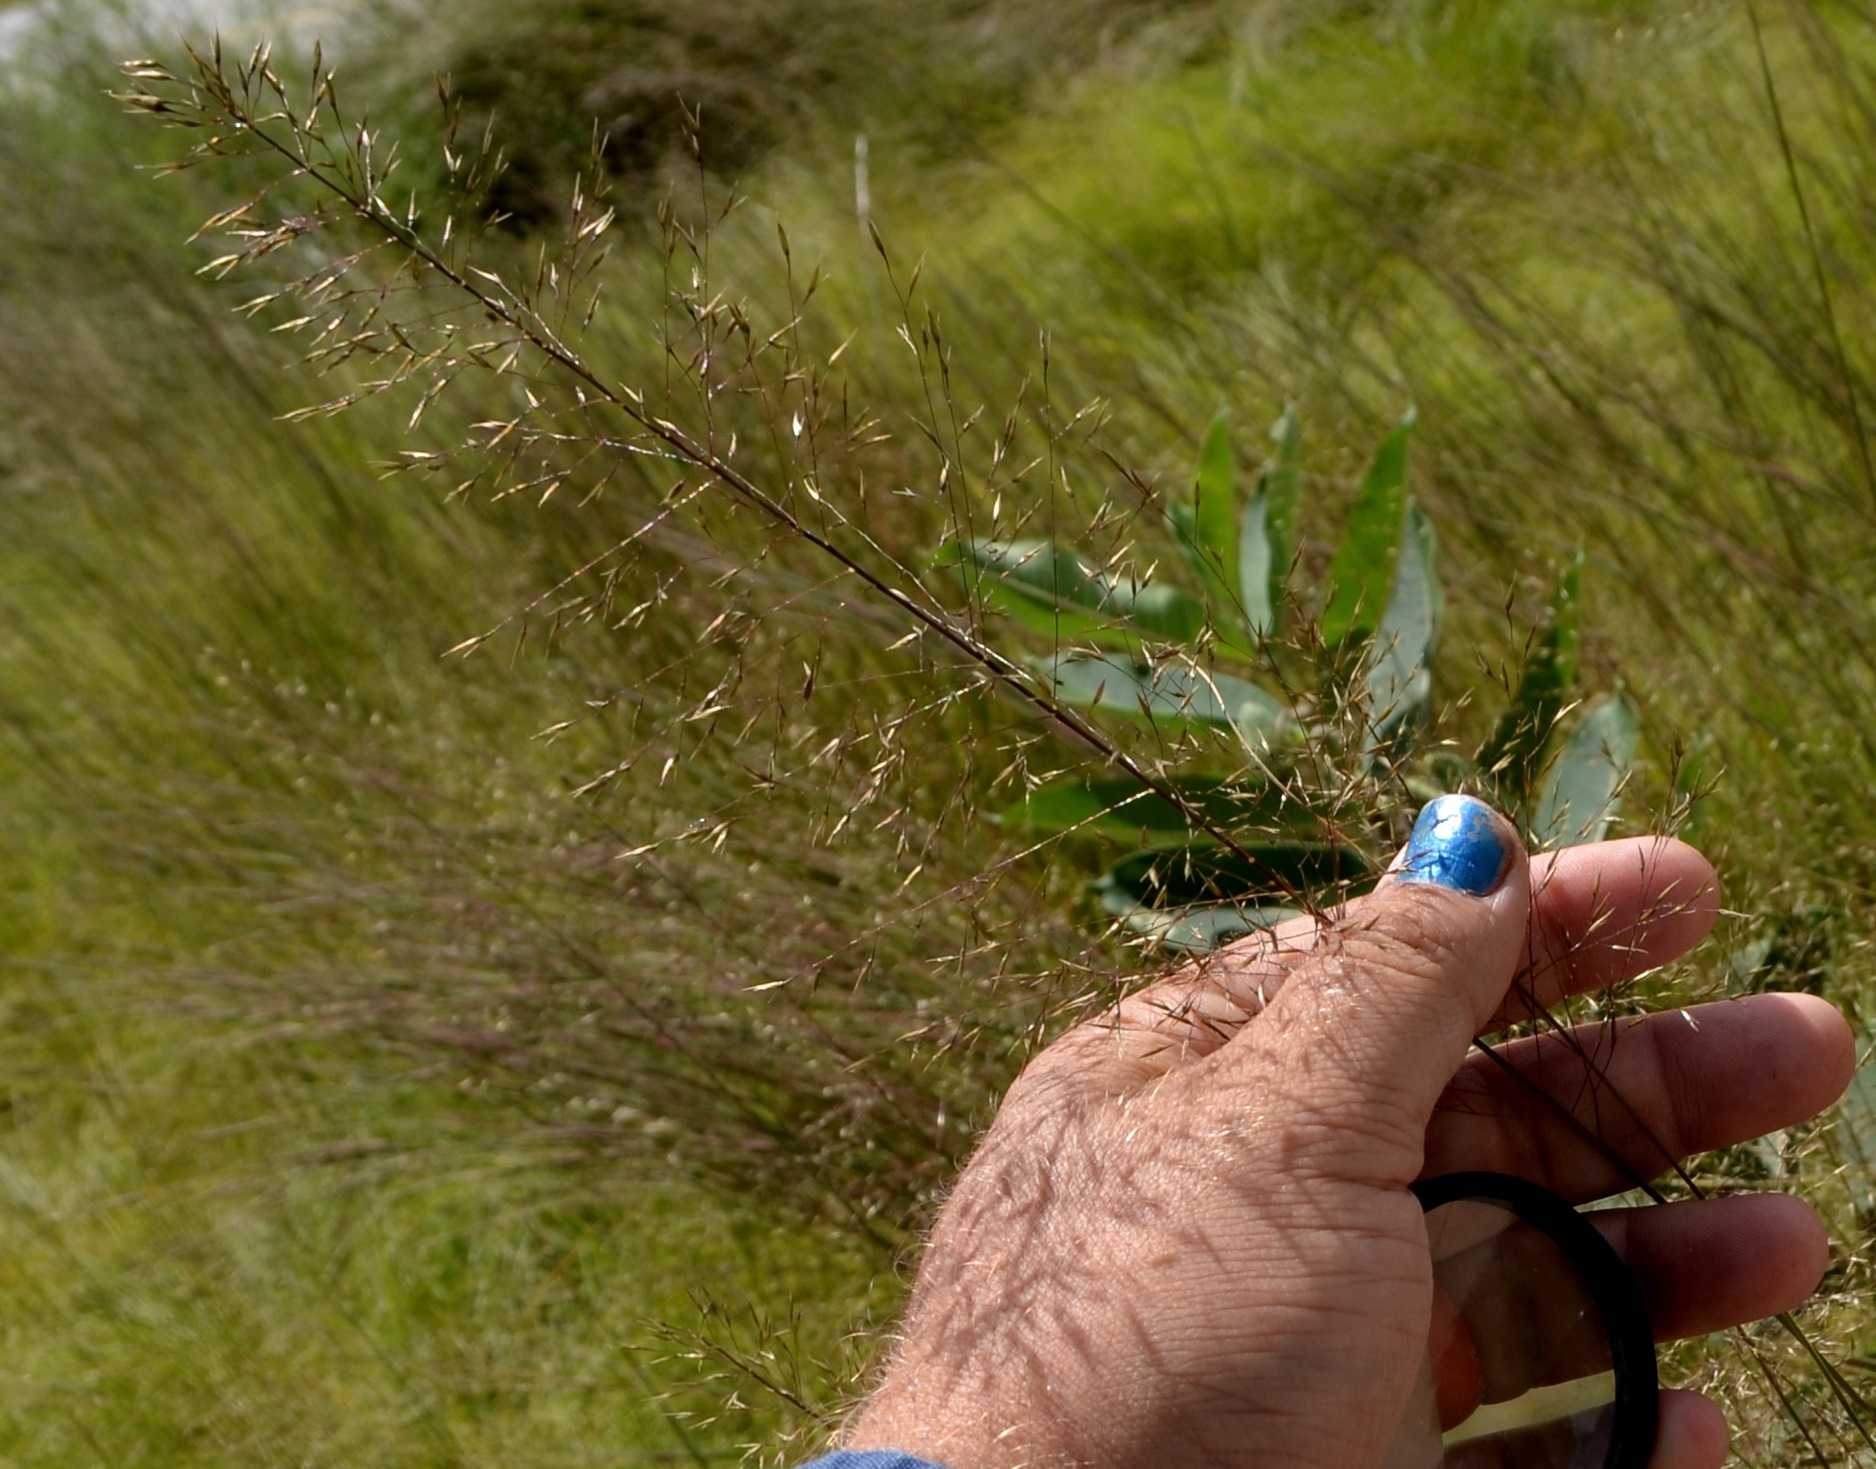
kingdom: Plantae
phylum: Tracheophyta
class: Liliopsida
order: Poales
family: Poaceae
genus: Sporobolus
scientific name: Sporobolus heterolepis
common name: Prairie dropseed
